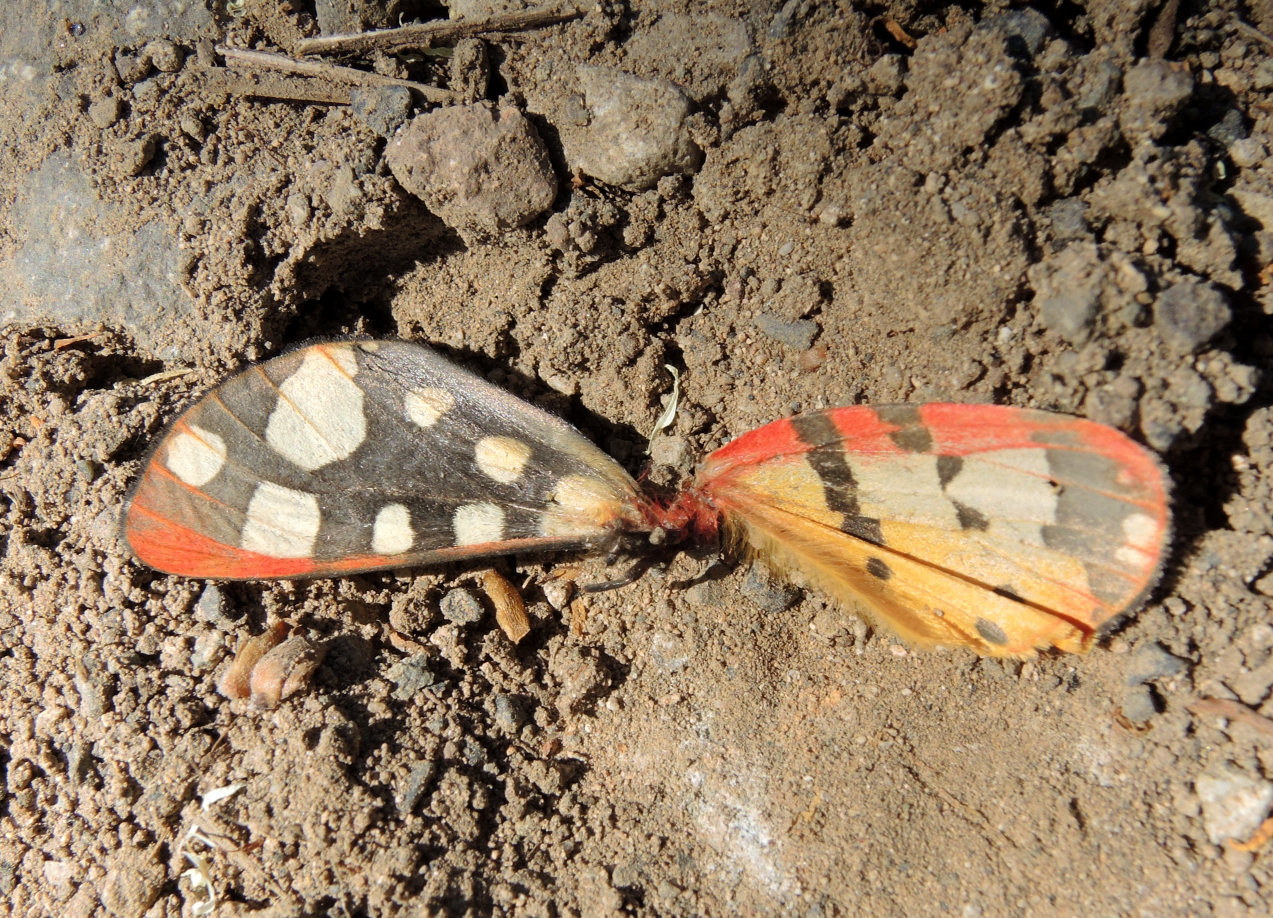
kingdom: Animalia
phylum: Arthropoda
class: Insecta
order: Lepidoptera
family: Erebidae
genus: Epicallia
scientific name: Epicallia villica
